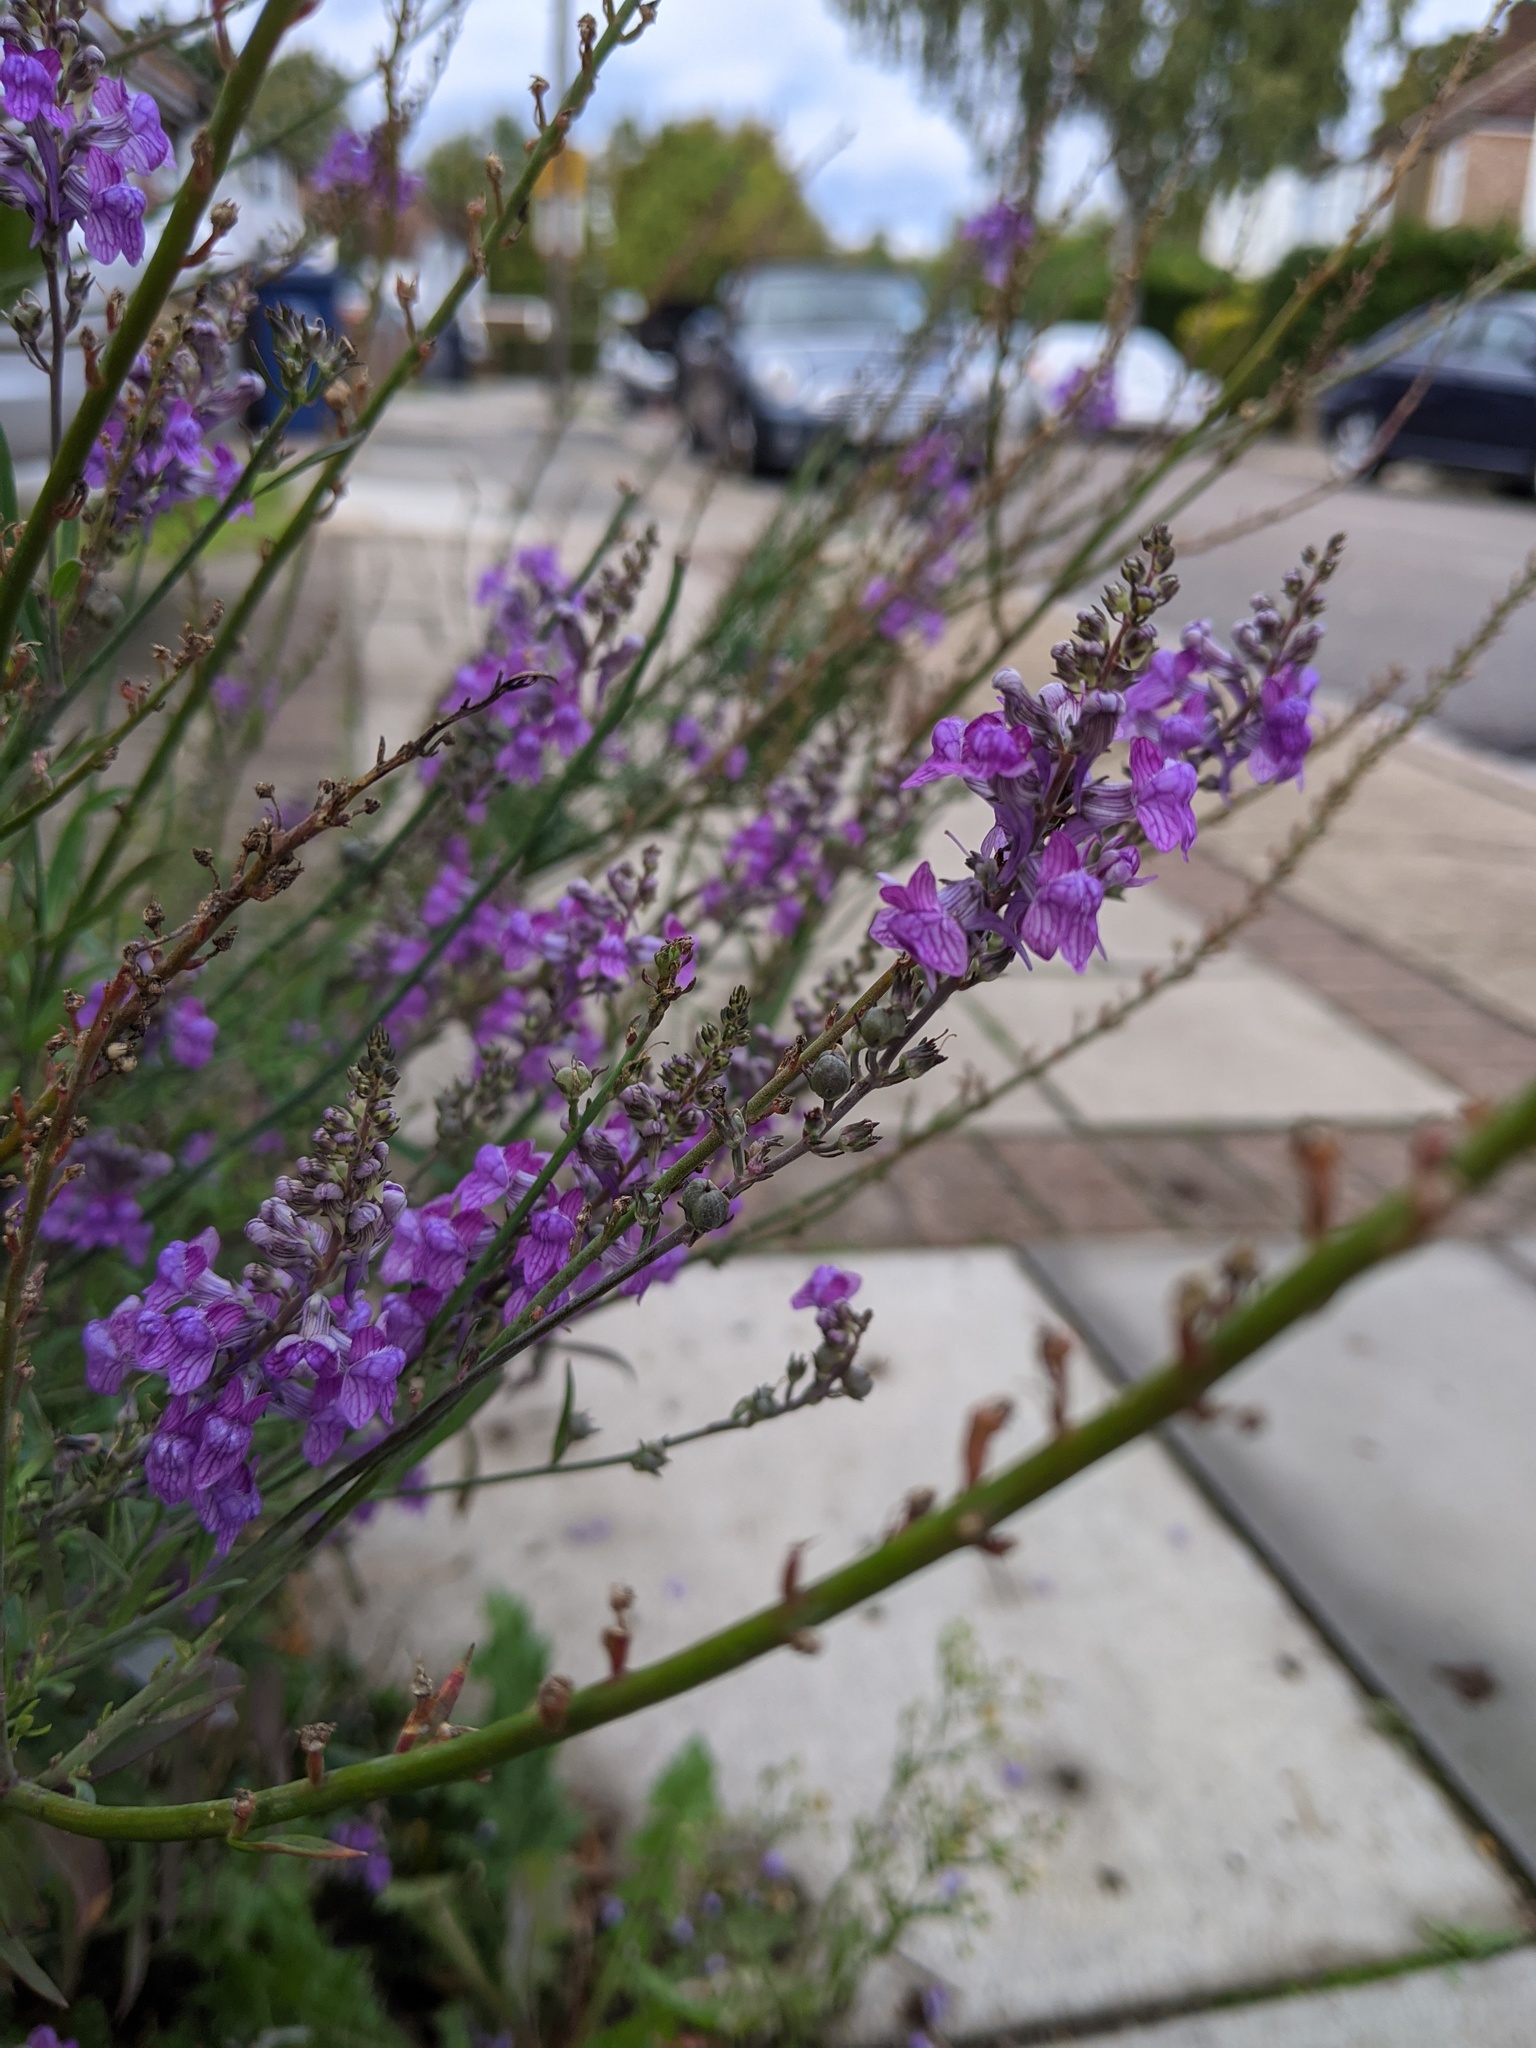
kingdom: Plantae
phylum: Tracheophyta
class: Magnoliopsida
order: Lamiales
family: Plantaginaceae
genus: Linaria
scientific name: Linaria purpurea
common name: Purple toadflax
